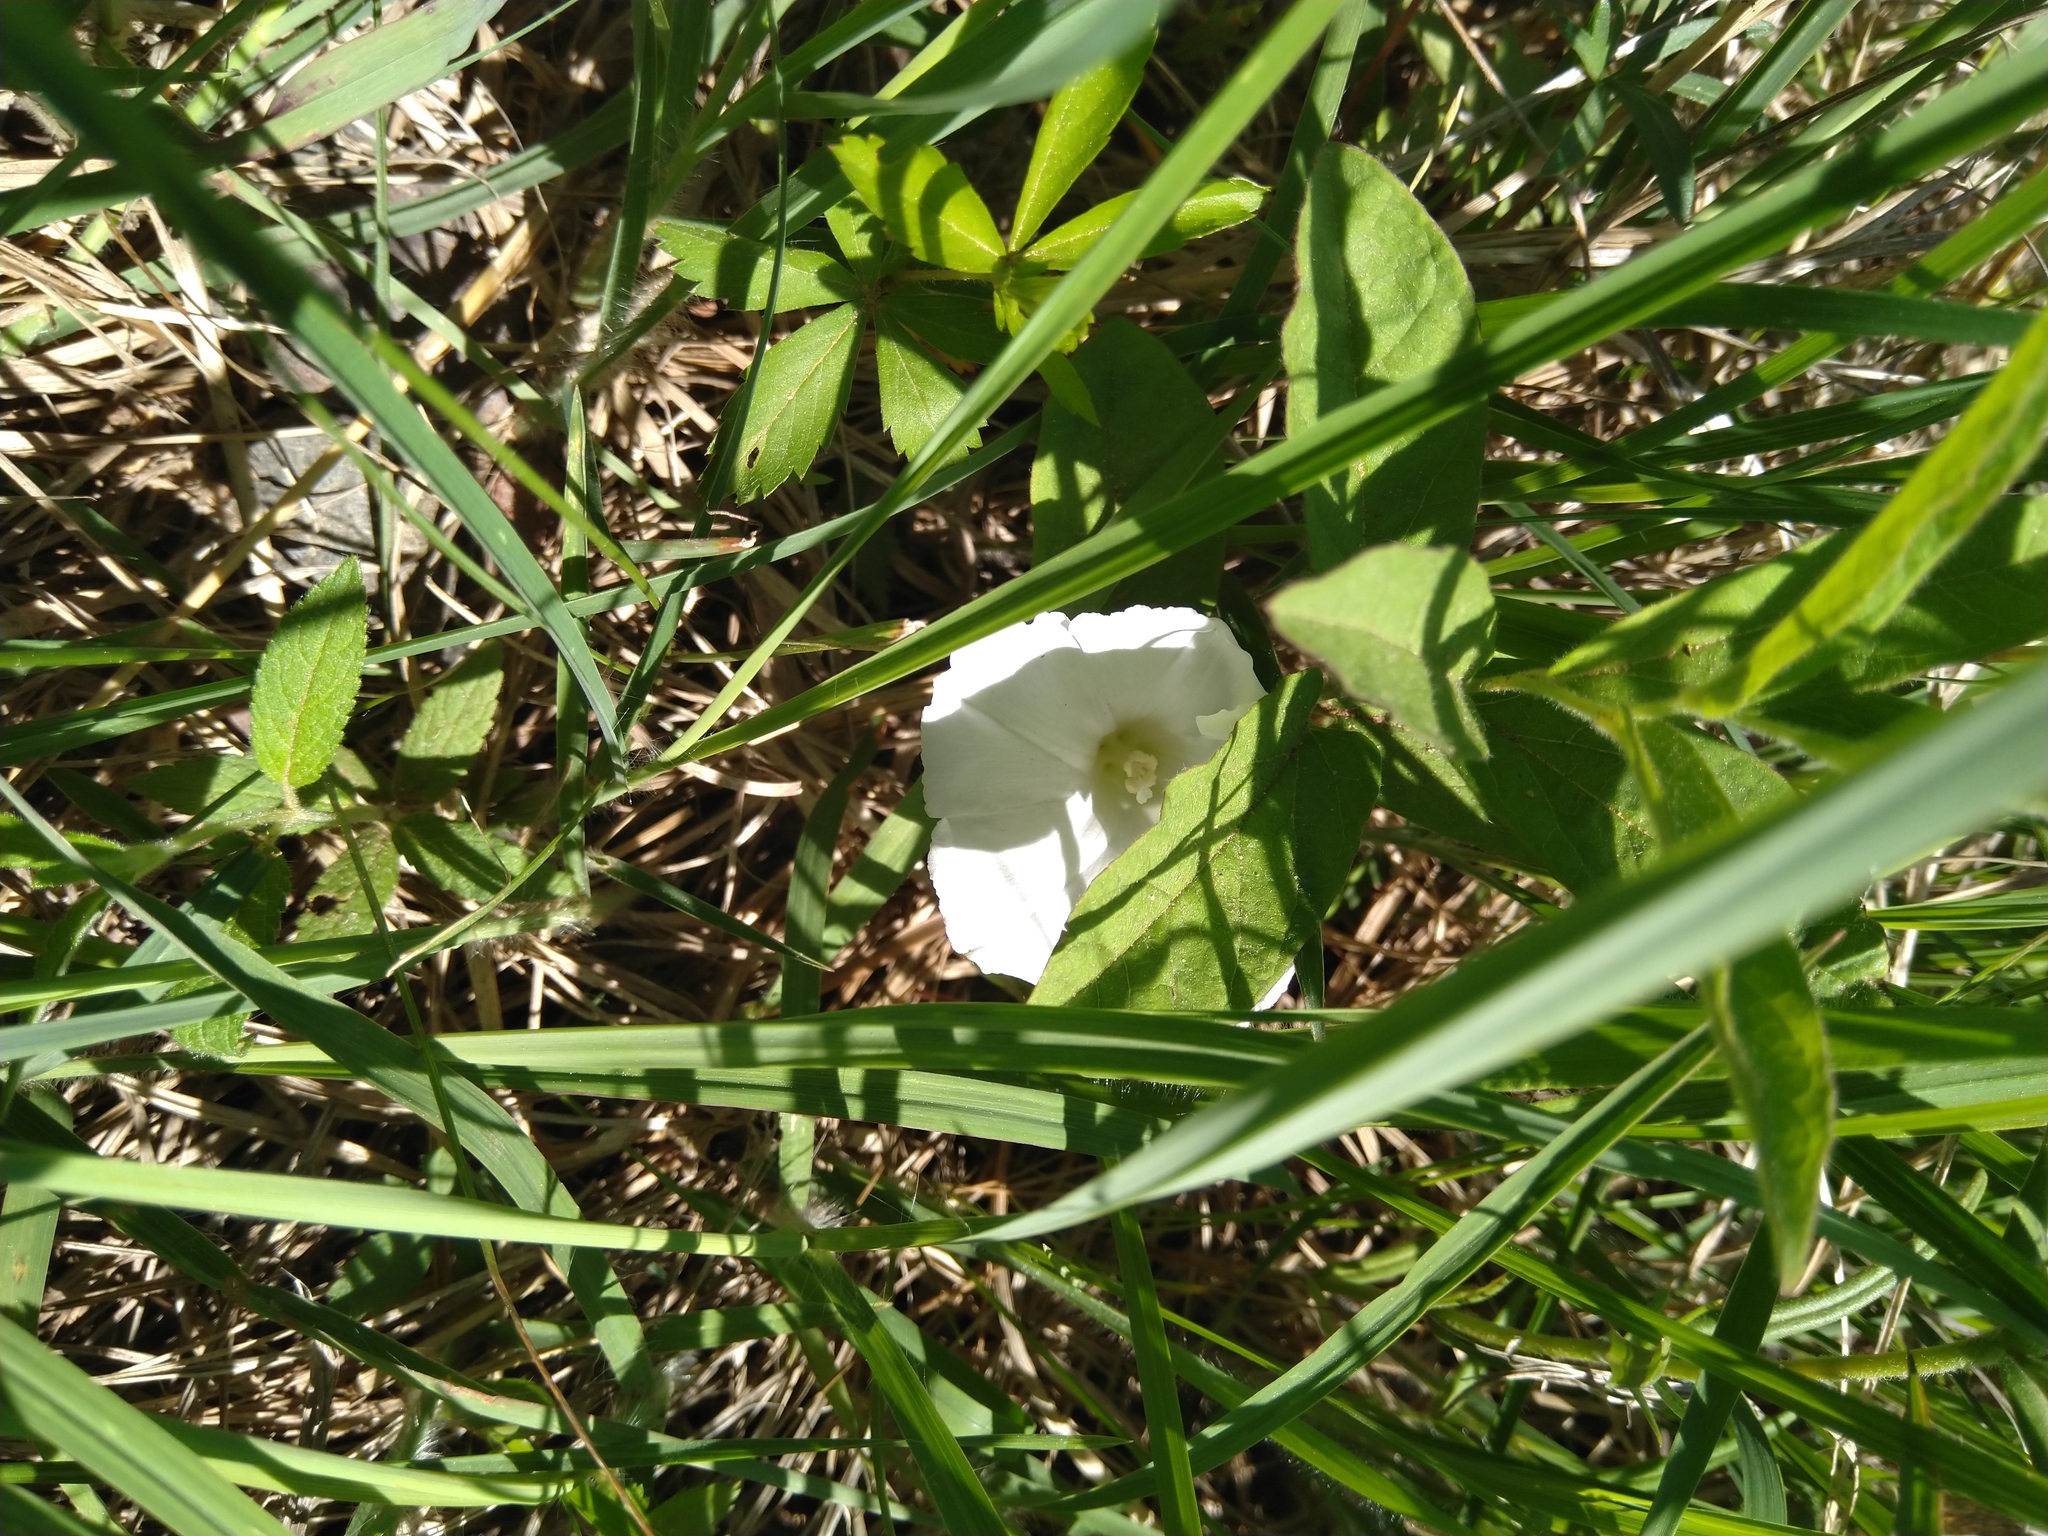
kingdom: Plantae
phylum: Tracheophyta
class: Magnoliopsida
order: Solanales
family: Convolvulaceae
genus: Calystegia
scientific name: Calystegia spithamaea
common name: Dwarf bindweed
